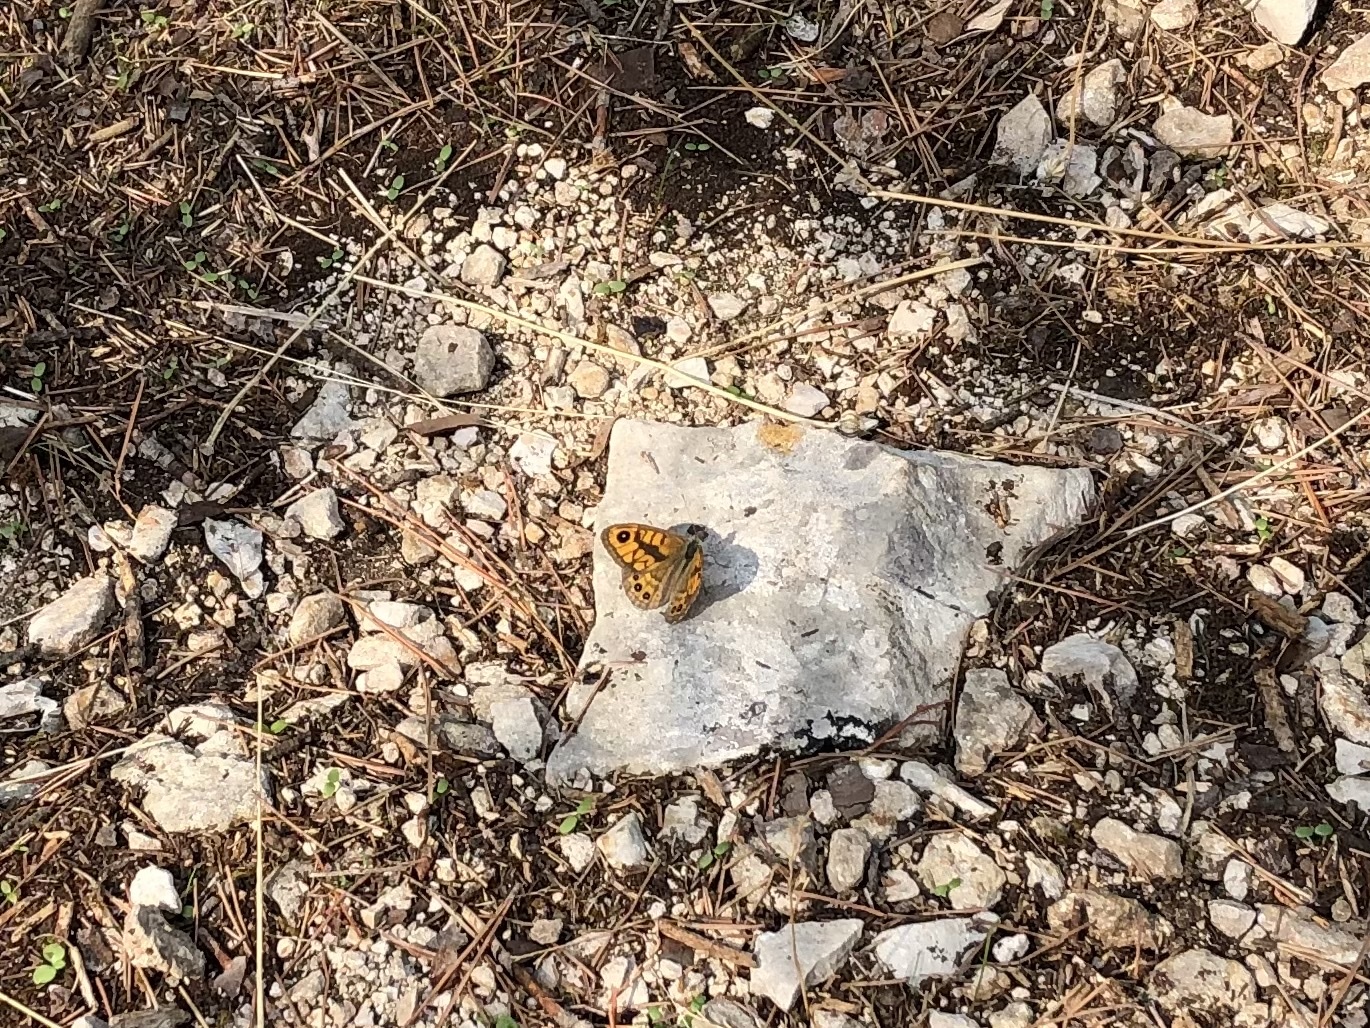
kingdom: Animalia
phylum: Arthropoda
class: Insecta
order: Lepidoptera
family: Nymphalidae
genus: Pararge
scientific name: Pararge Lasiommata megera
